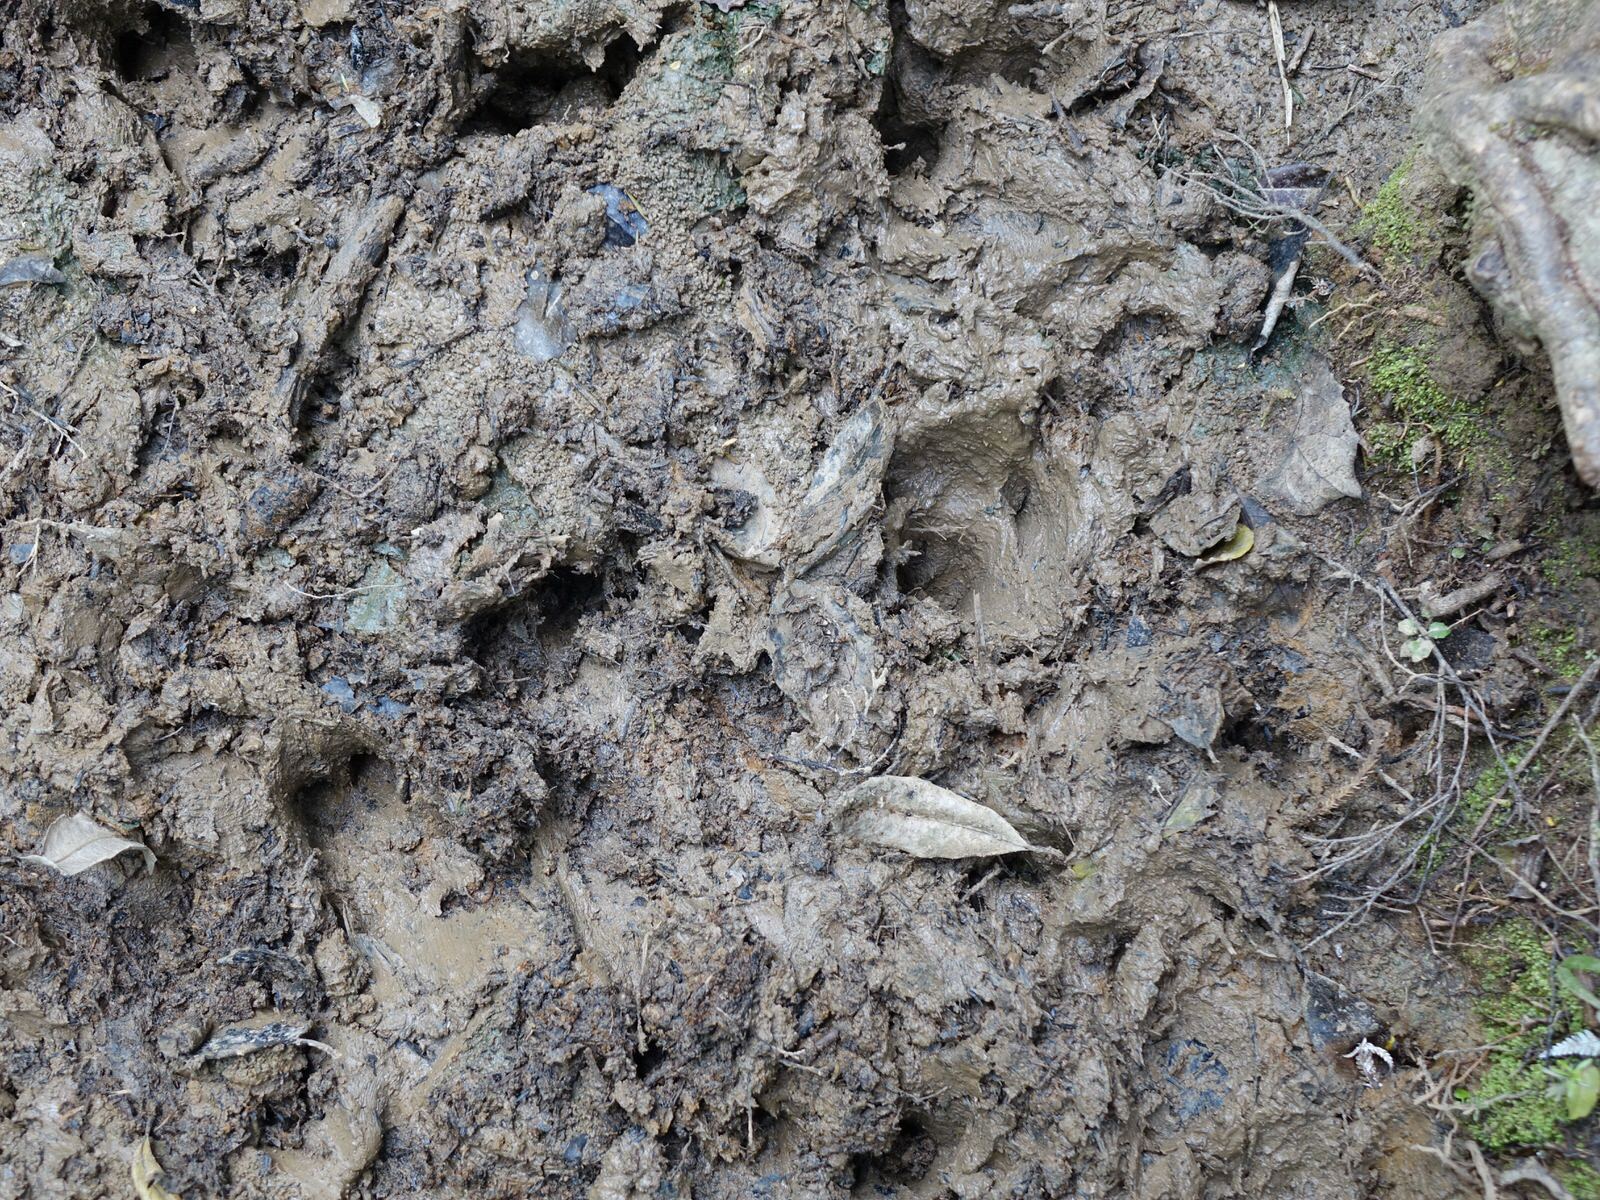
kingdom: Animalia
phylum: Chordata
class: Mammalia
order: Artiodactyla
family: Suidae
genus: Sus
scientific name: Sus scrofa
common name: Wild boar
